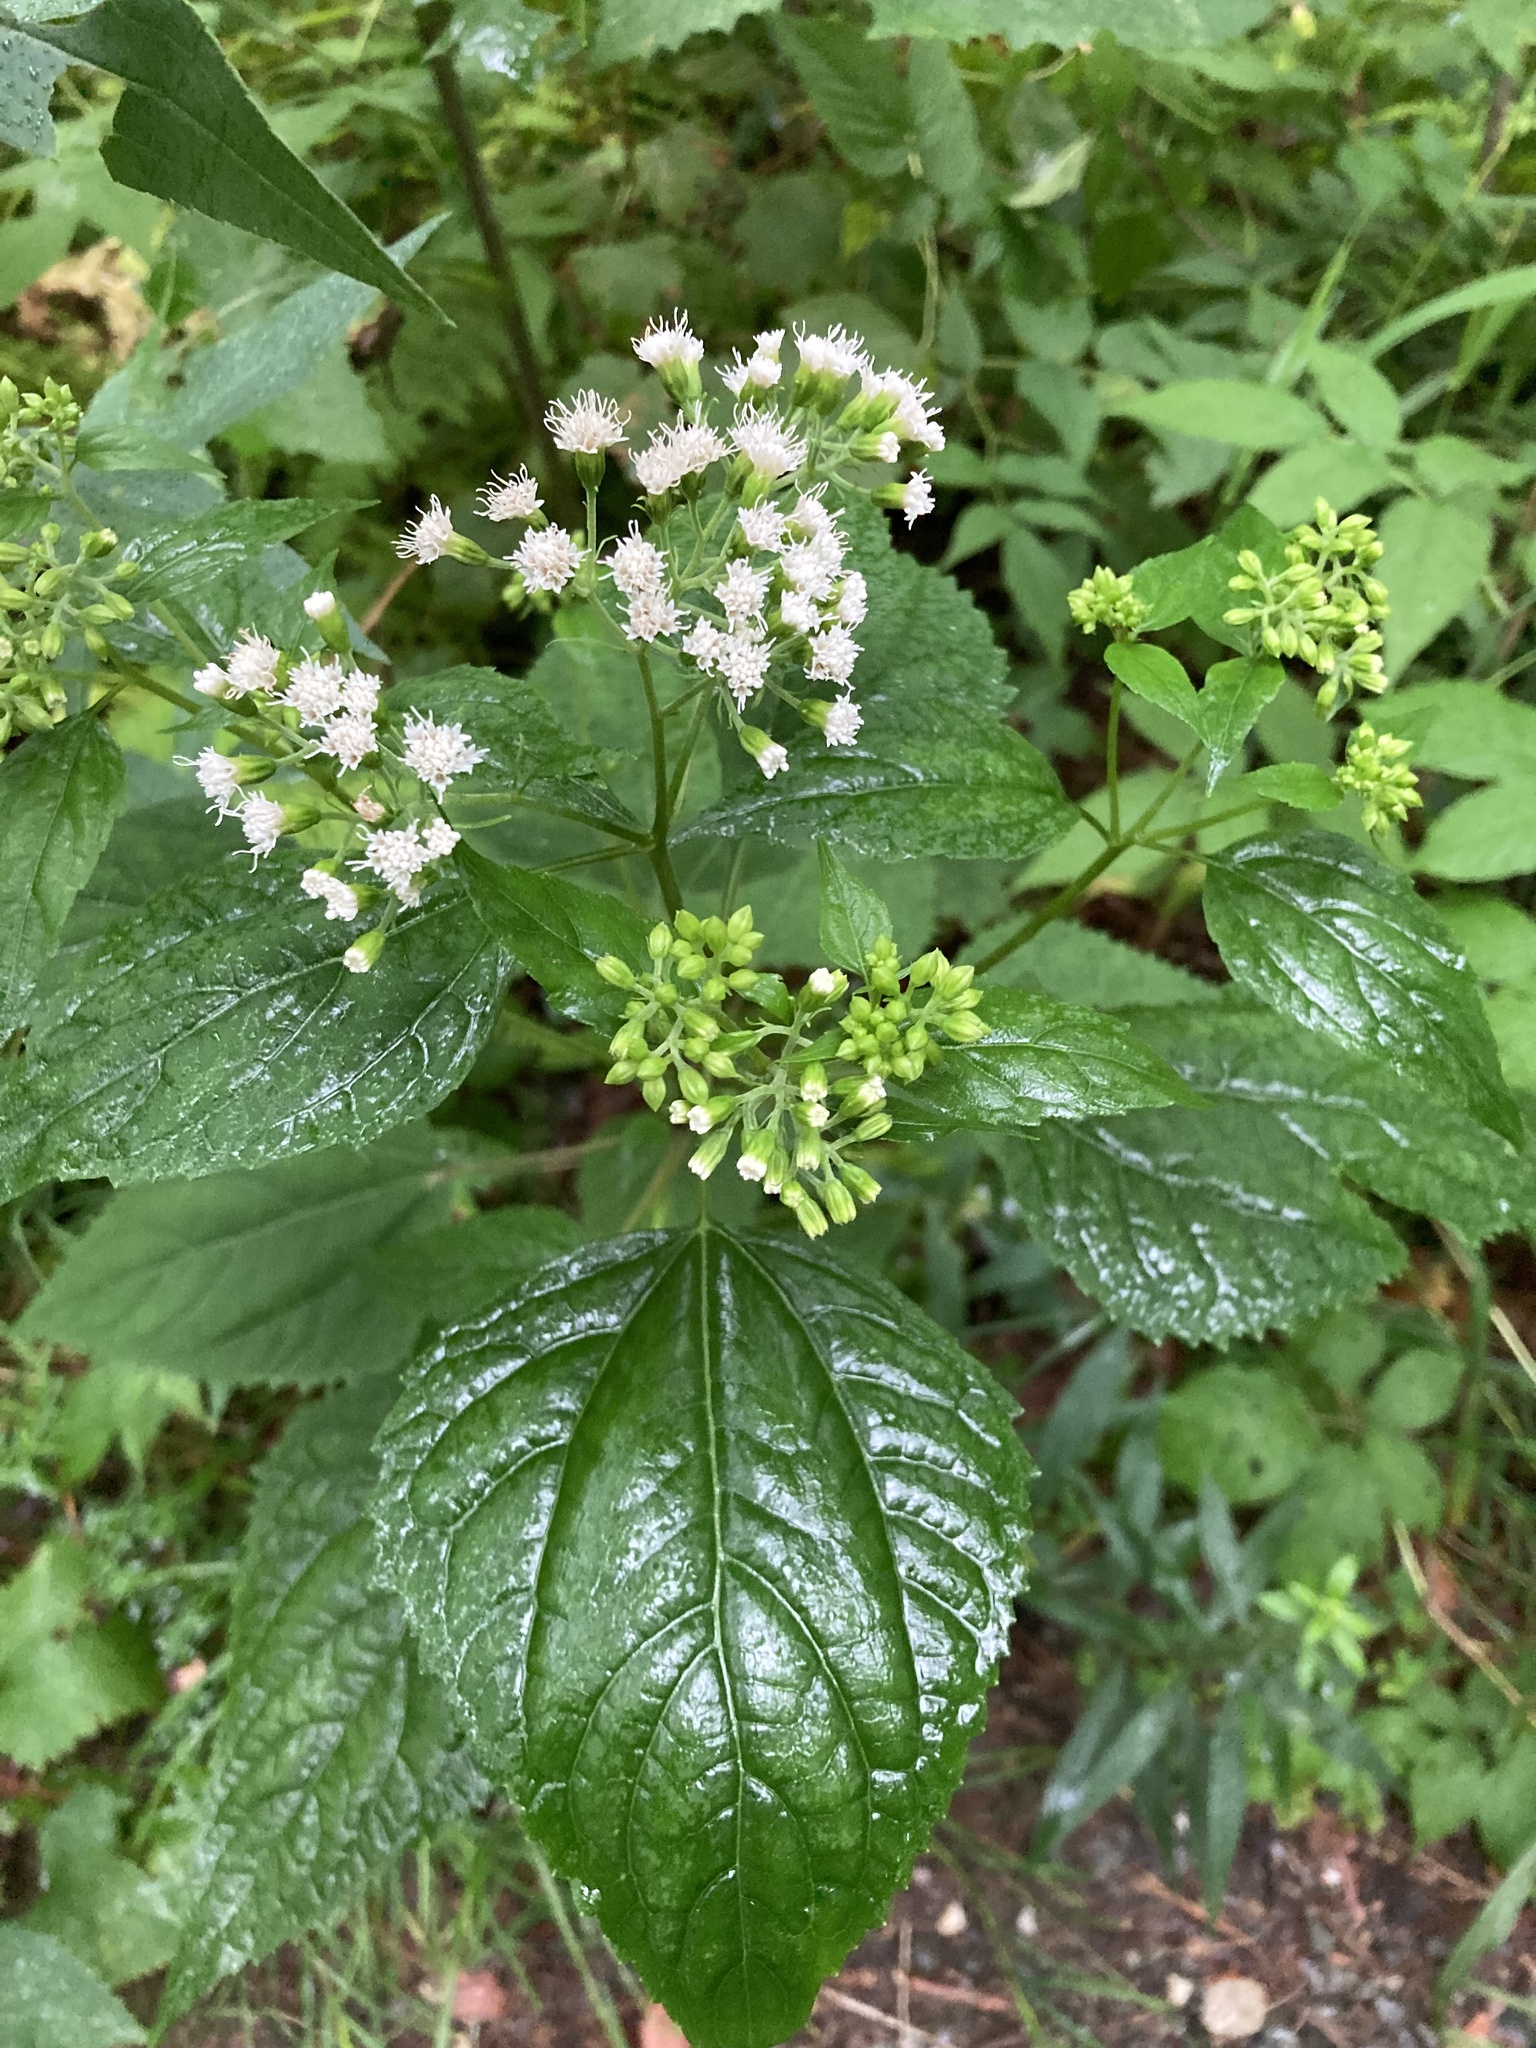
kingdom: Plantae
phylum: Tracheophyta
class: Magnoliopsida
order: Asterales
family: Asteraceae
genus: Ageratina
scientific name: Ageratina altissima
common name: White snakeroot
